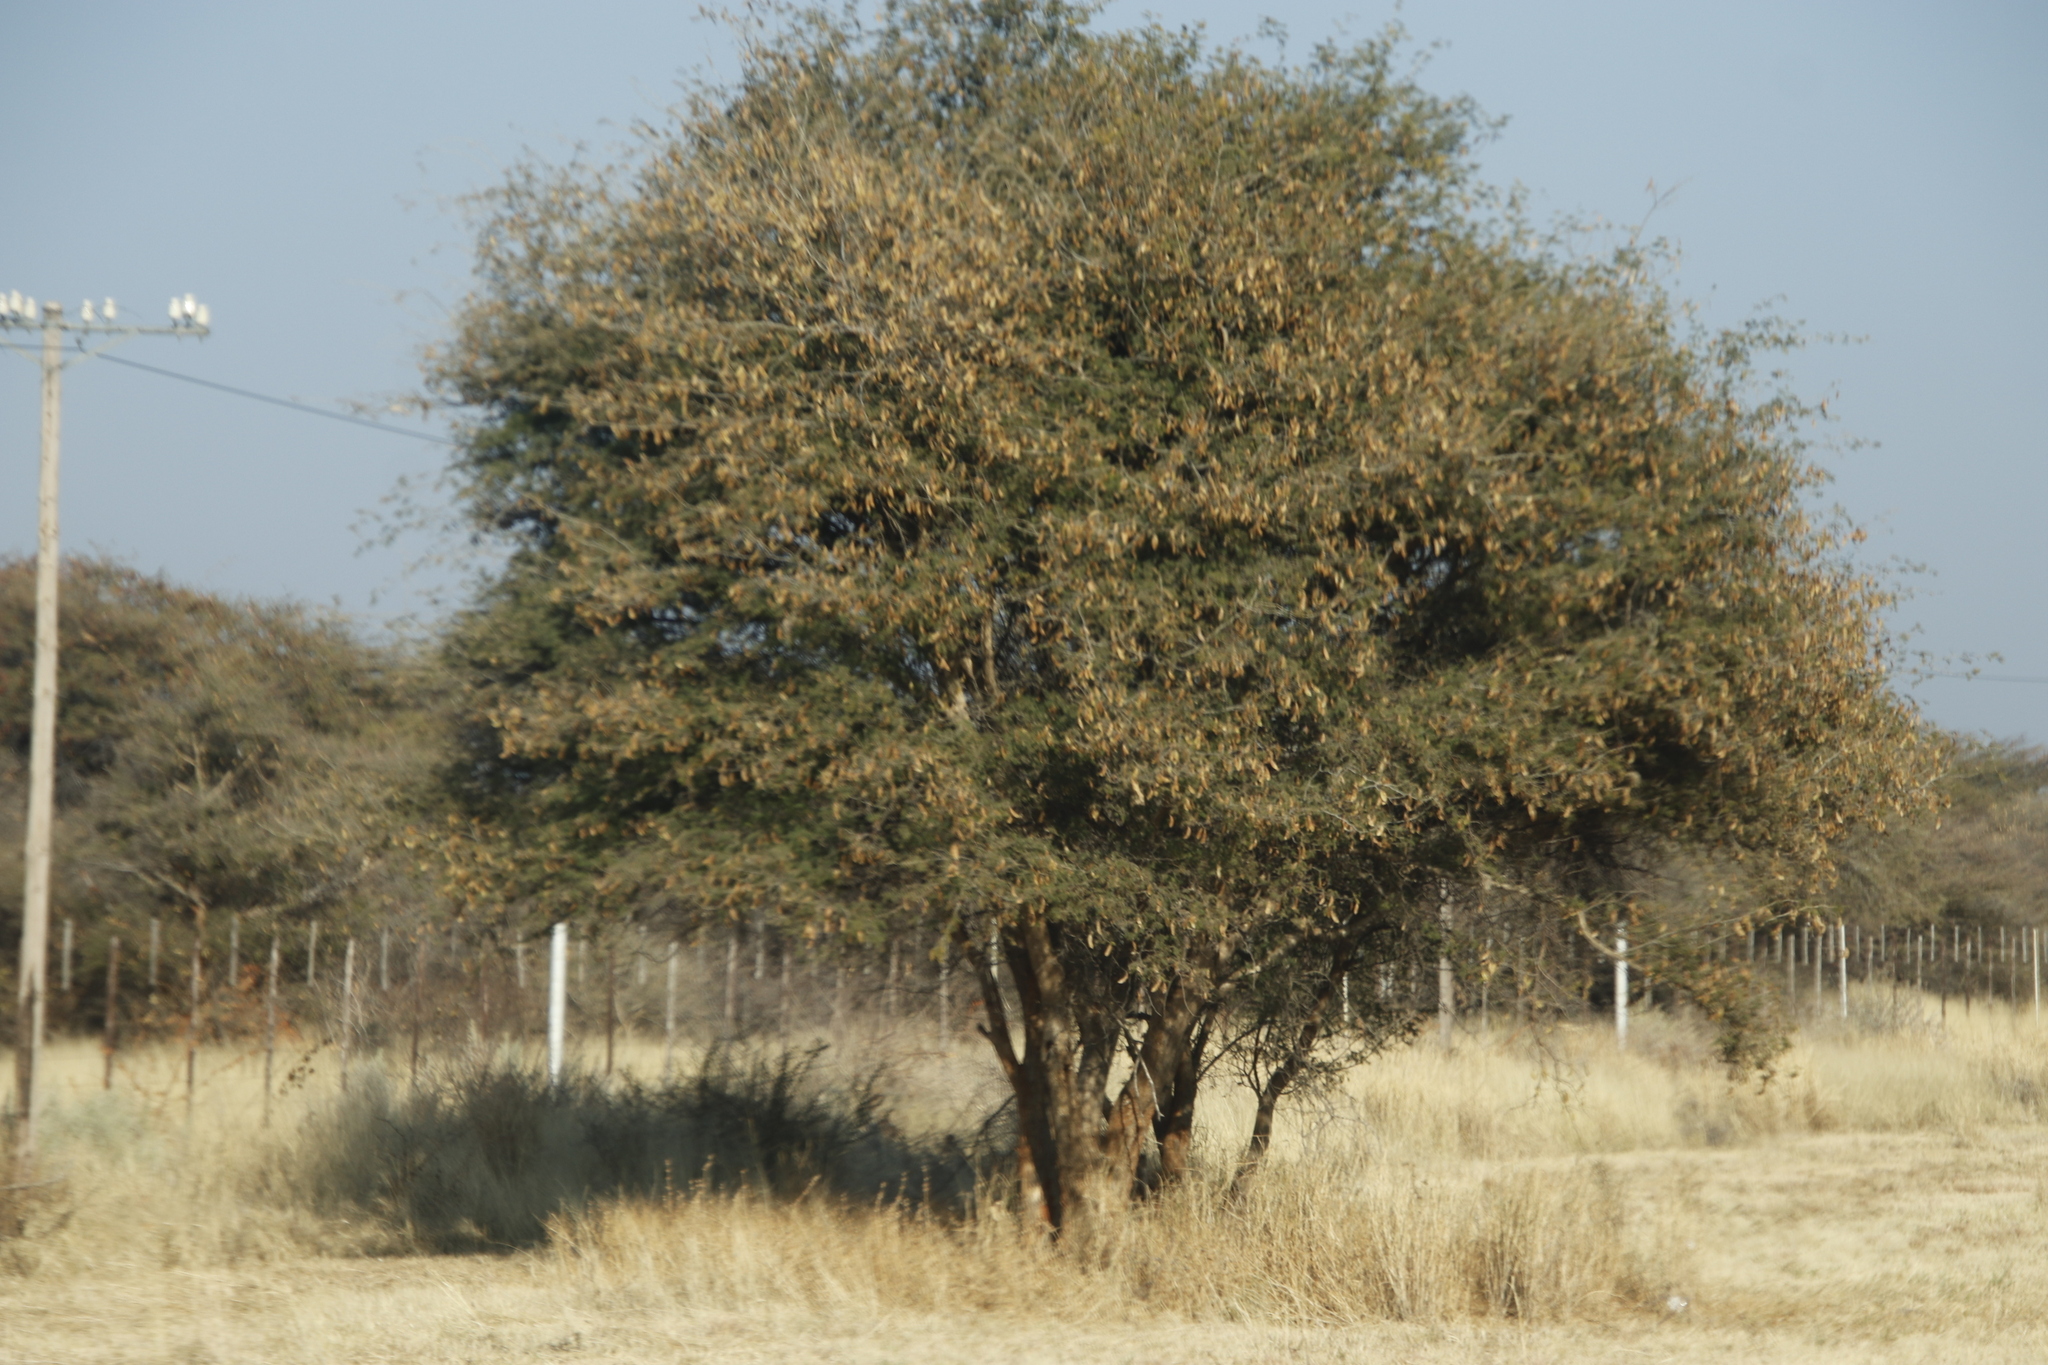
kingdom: Plantae
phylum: Tracheophyta
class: Magnoliopsida
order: Fabales
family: Fabaceae
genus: Senegalia
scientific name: Senegalia erubescens
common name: Bluethorn
